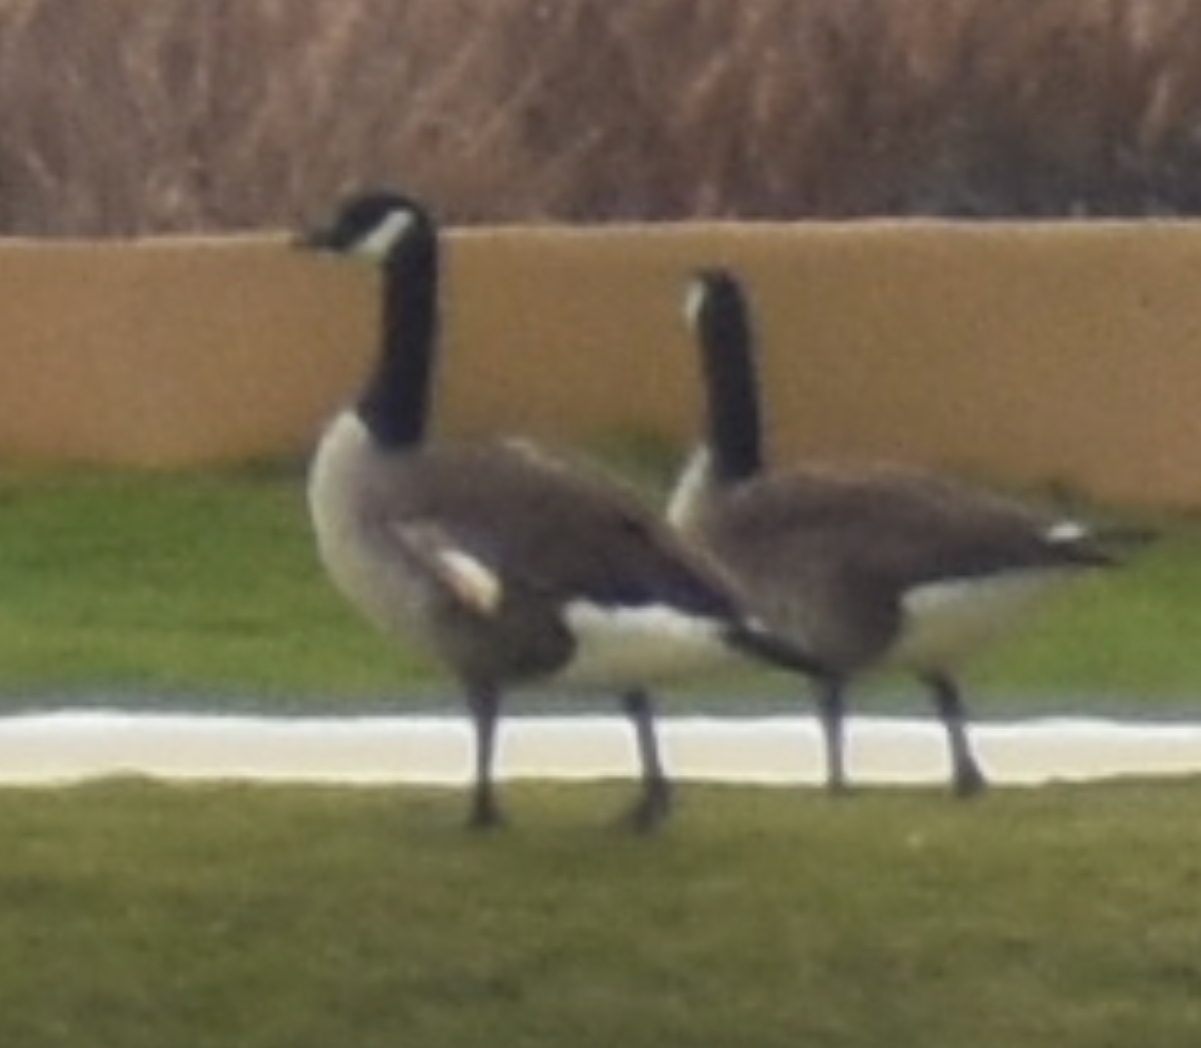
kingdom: Animalia
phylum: Chordata
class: Aves
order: Anseriformes
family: Anatidae
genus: Branta
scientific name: Branta canadensis
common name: Canada goose
